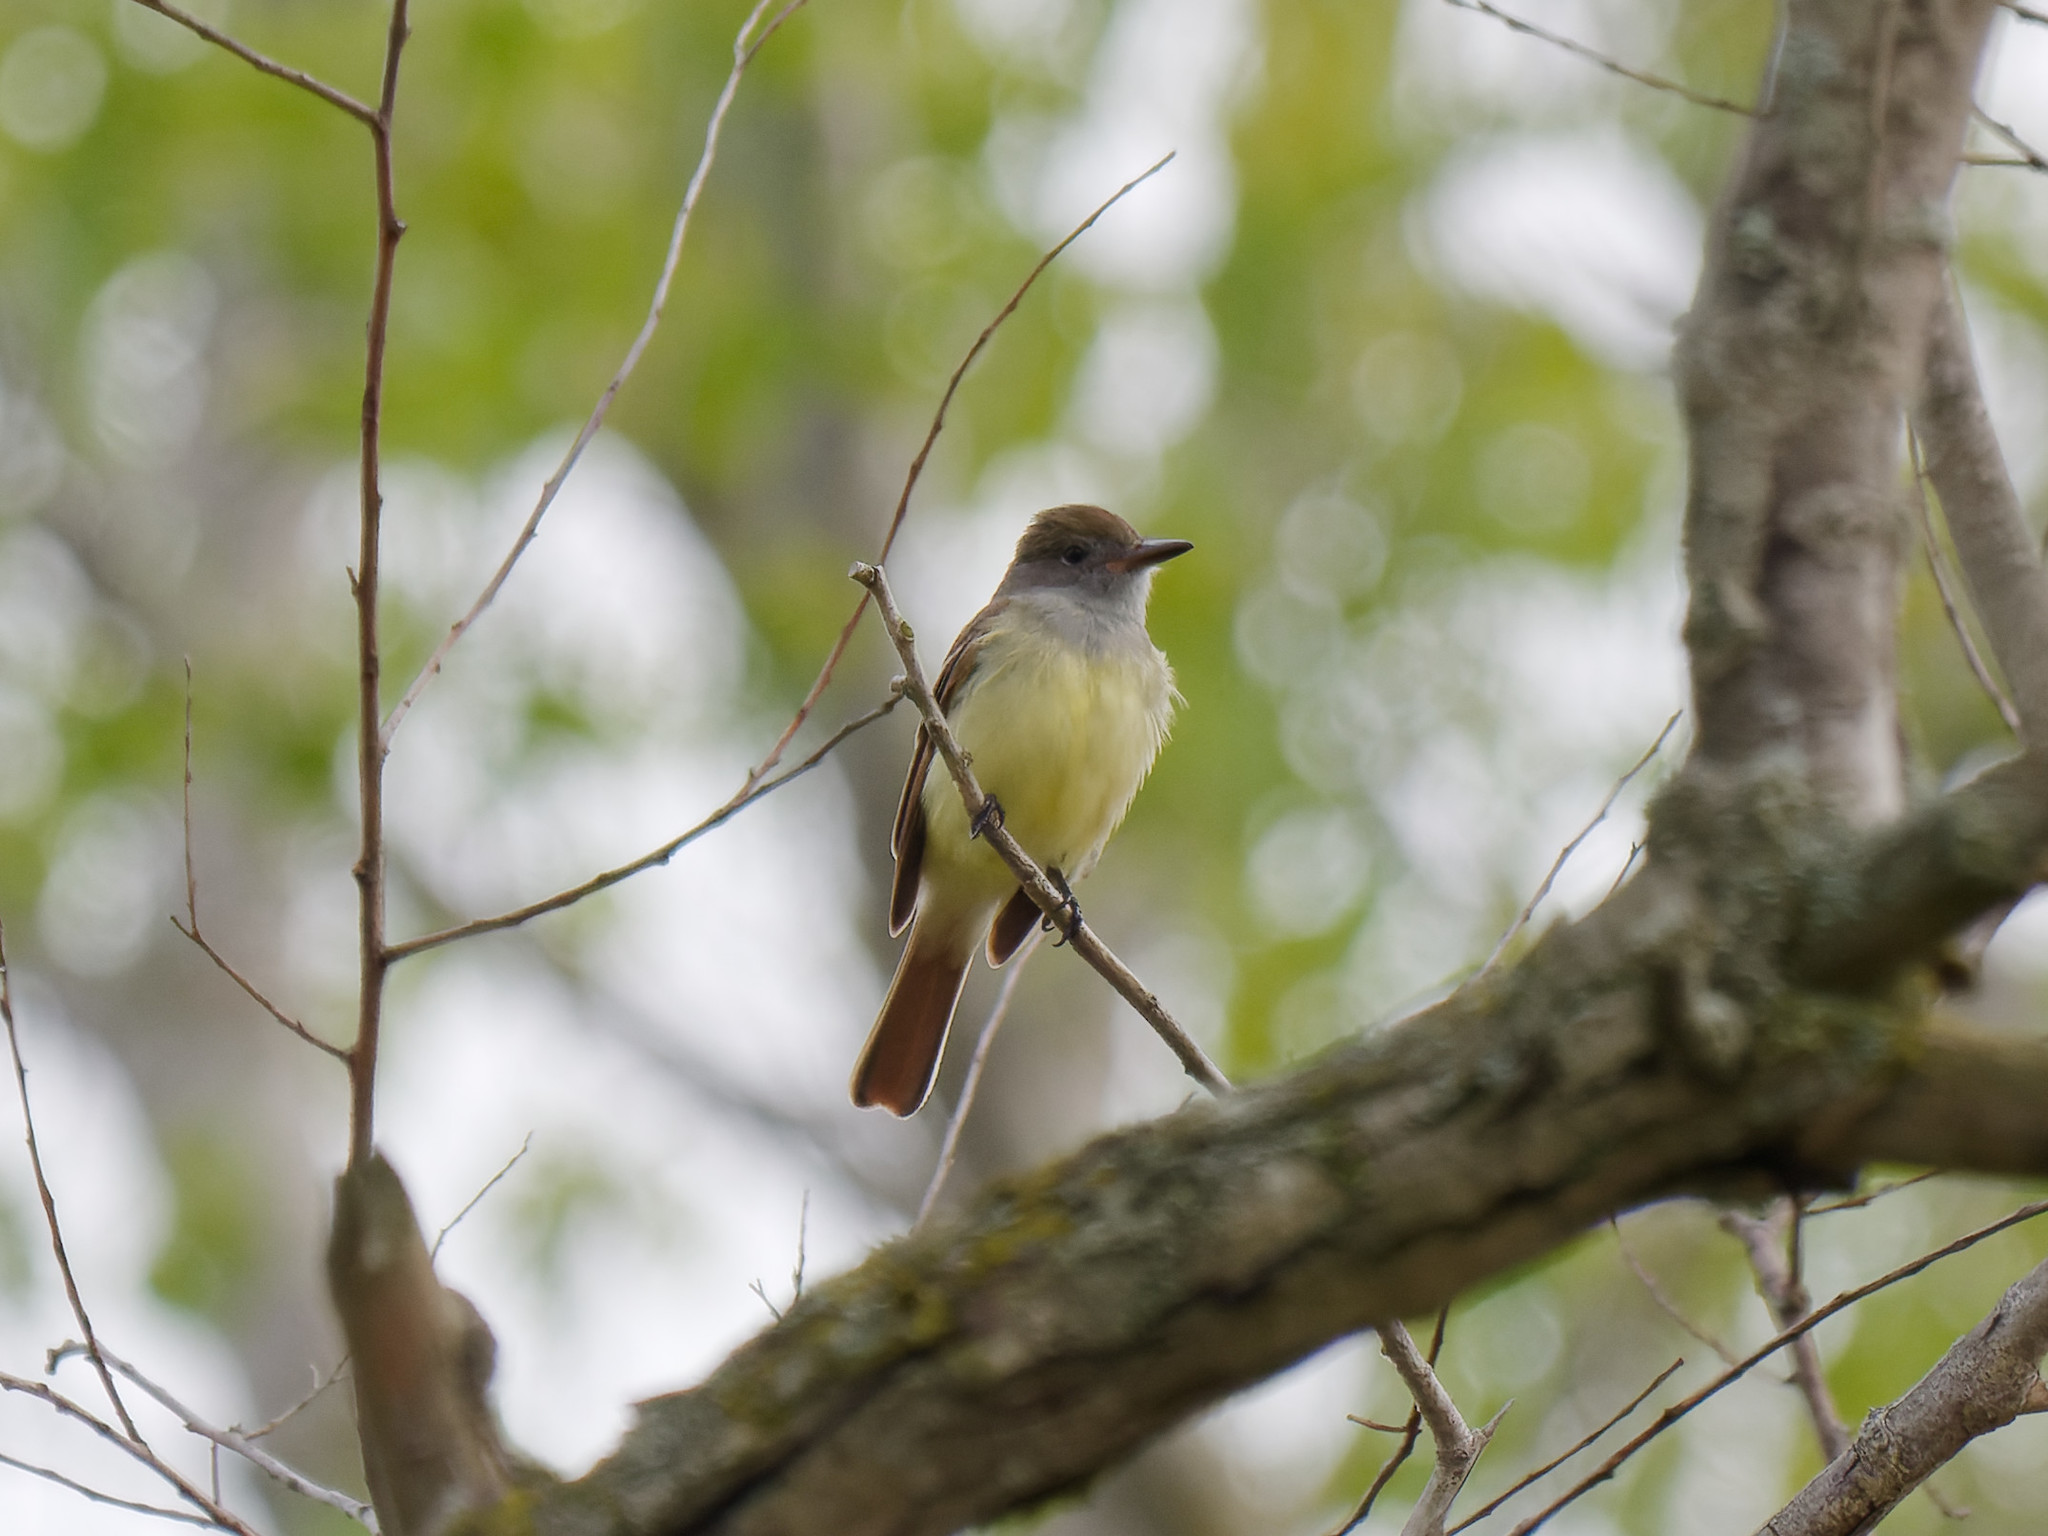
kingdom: Animalia
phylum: Chordata
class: Aves
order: Passeriformes
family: Tyrannidae
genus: Myiarchus
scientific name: Myiarchus crinitus
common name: Great crested flycatcher
